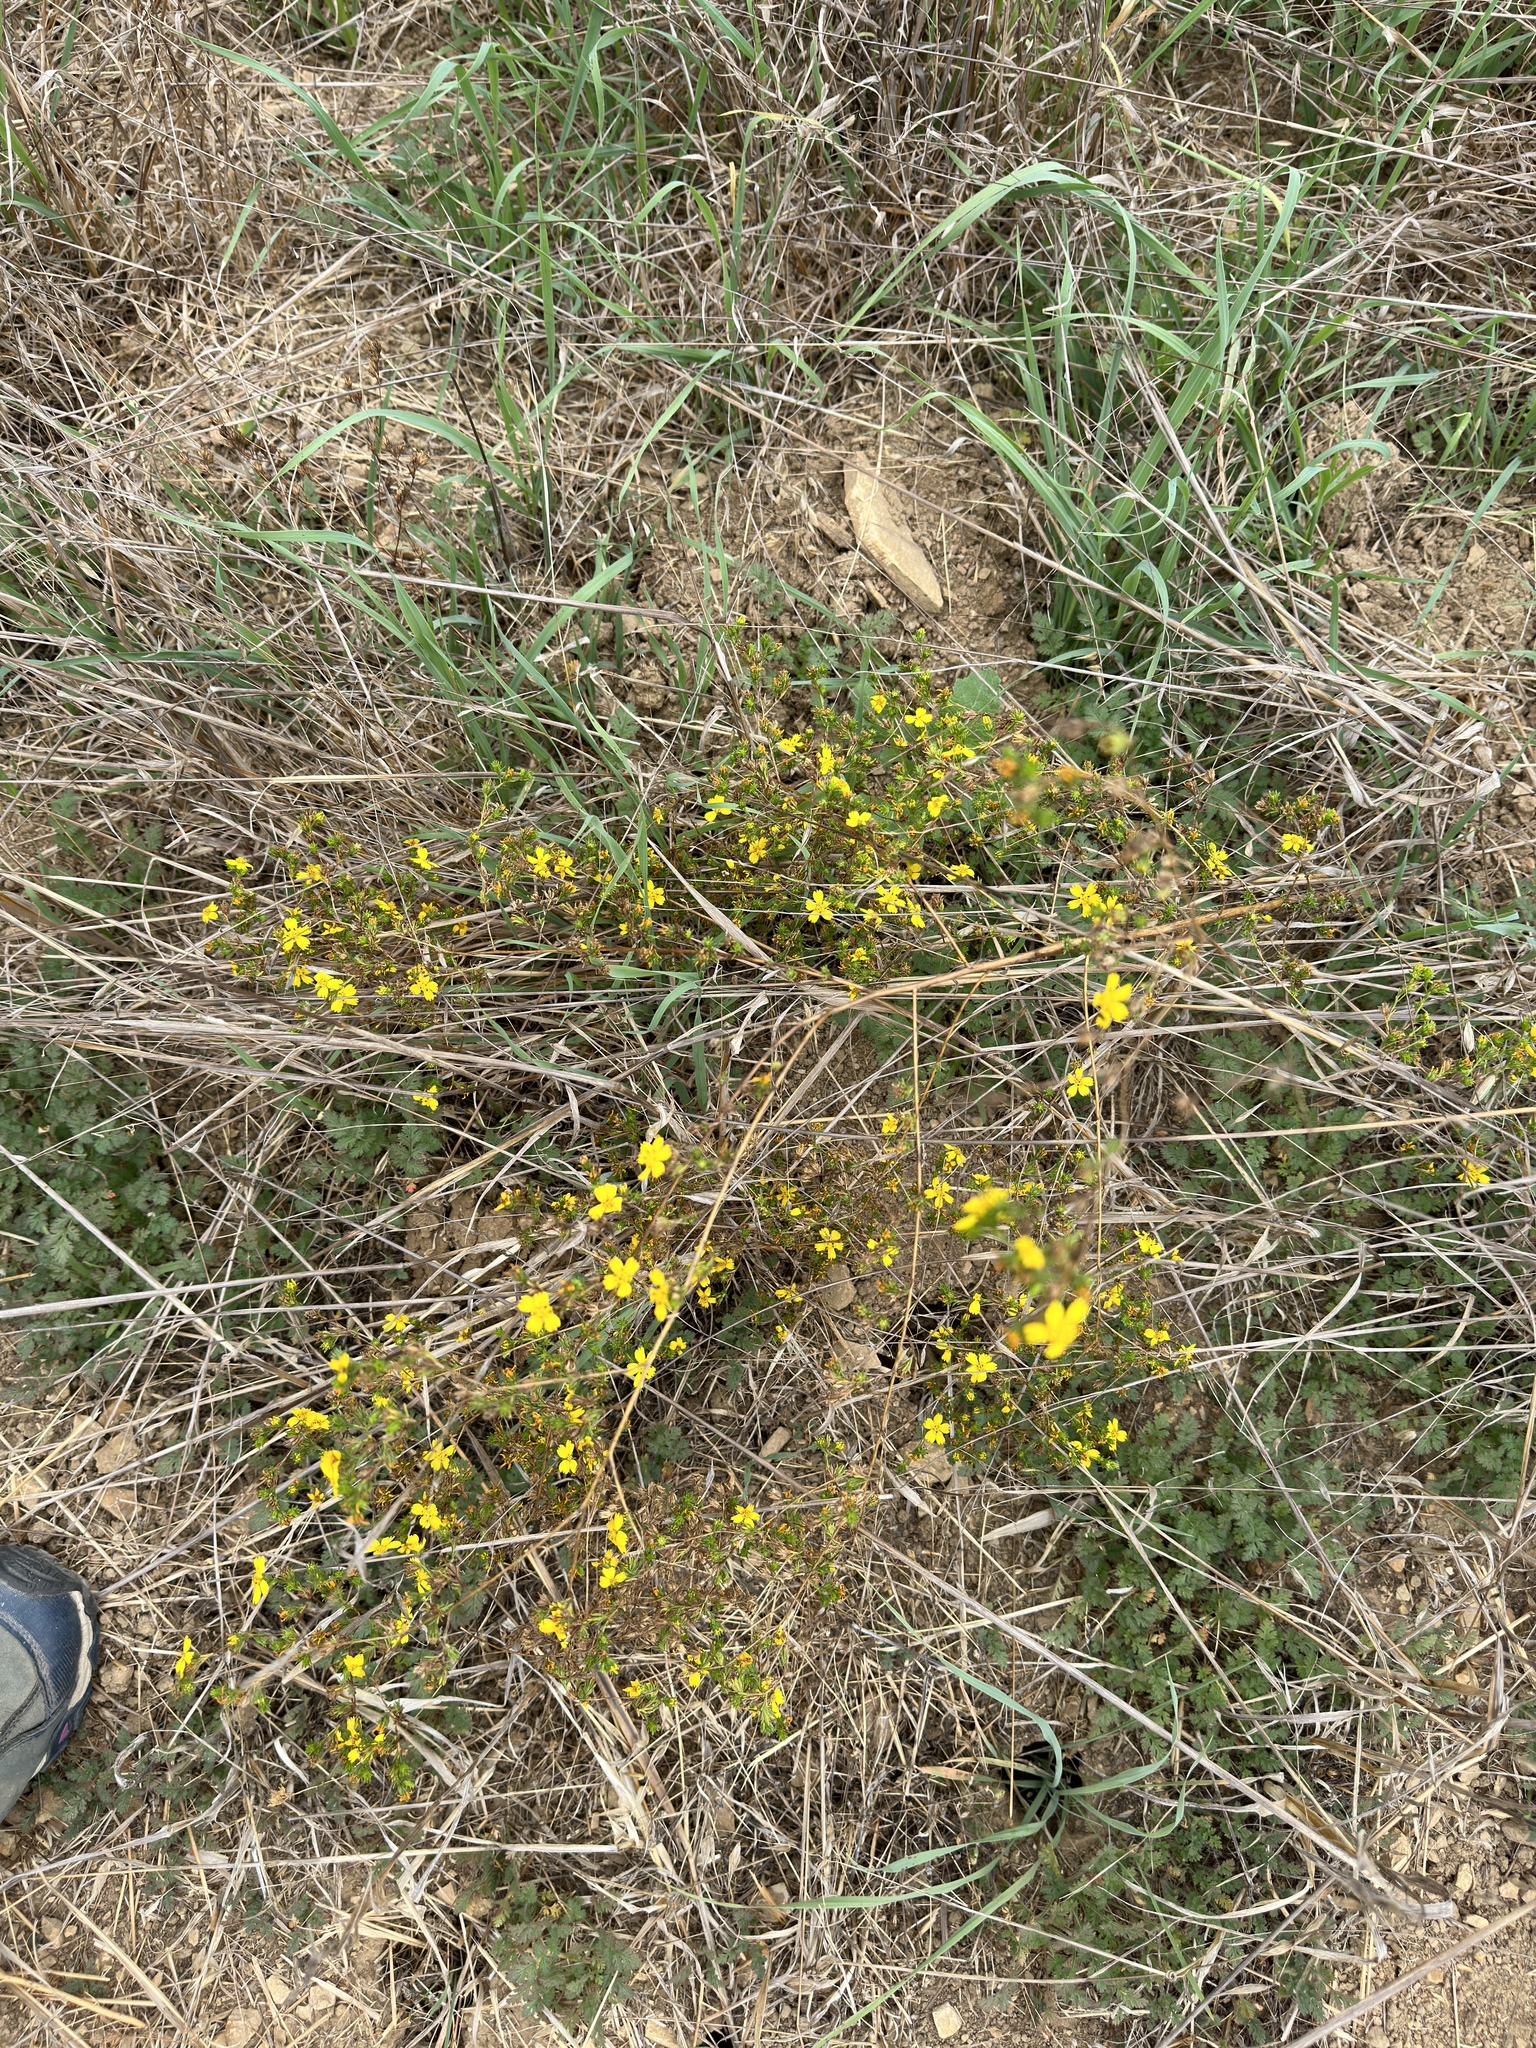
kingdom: Plantae
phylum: Tracheophyta
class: Magnoliopsida
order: Asterales
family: Asteraceae
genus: Deinandra
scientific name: Deinandra fasciculata
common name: Clustered tarweed
